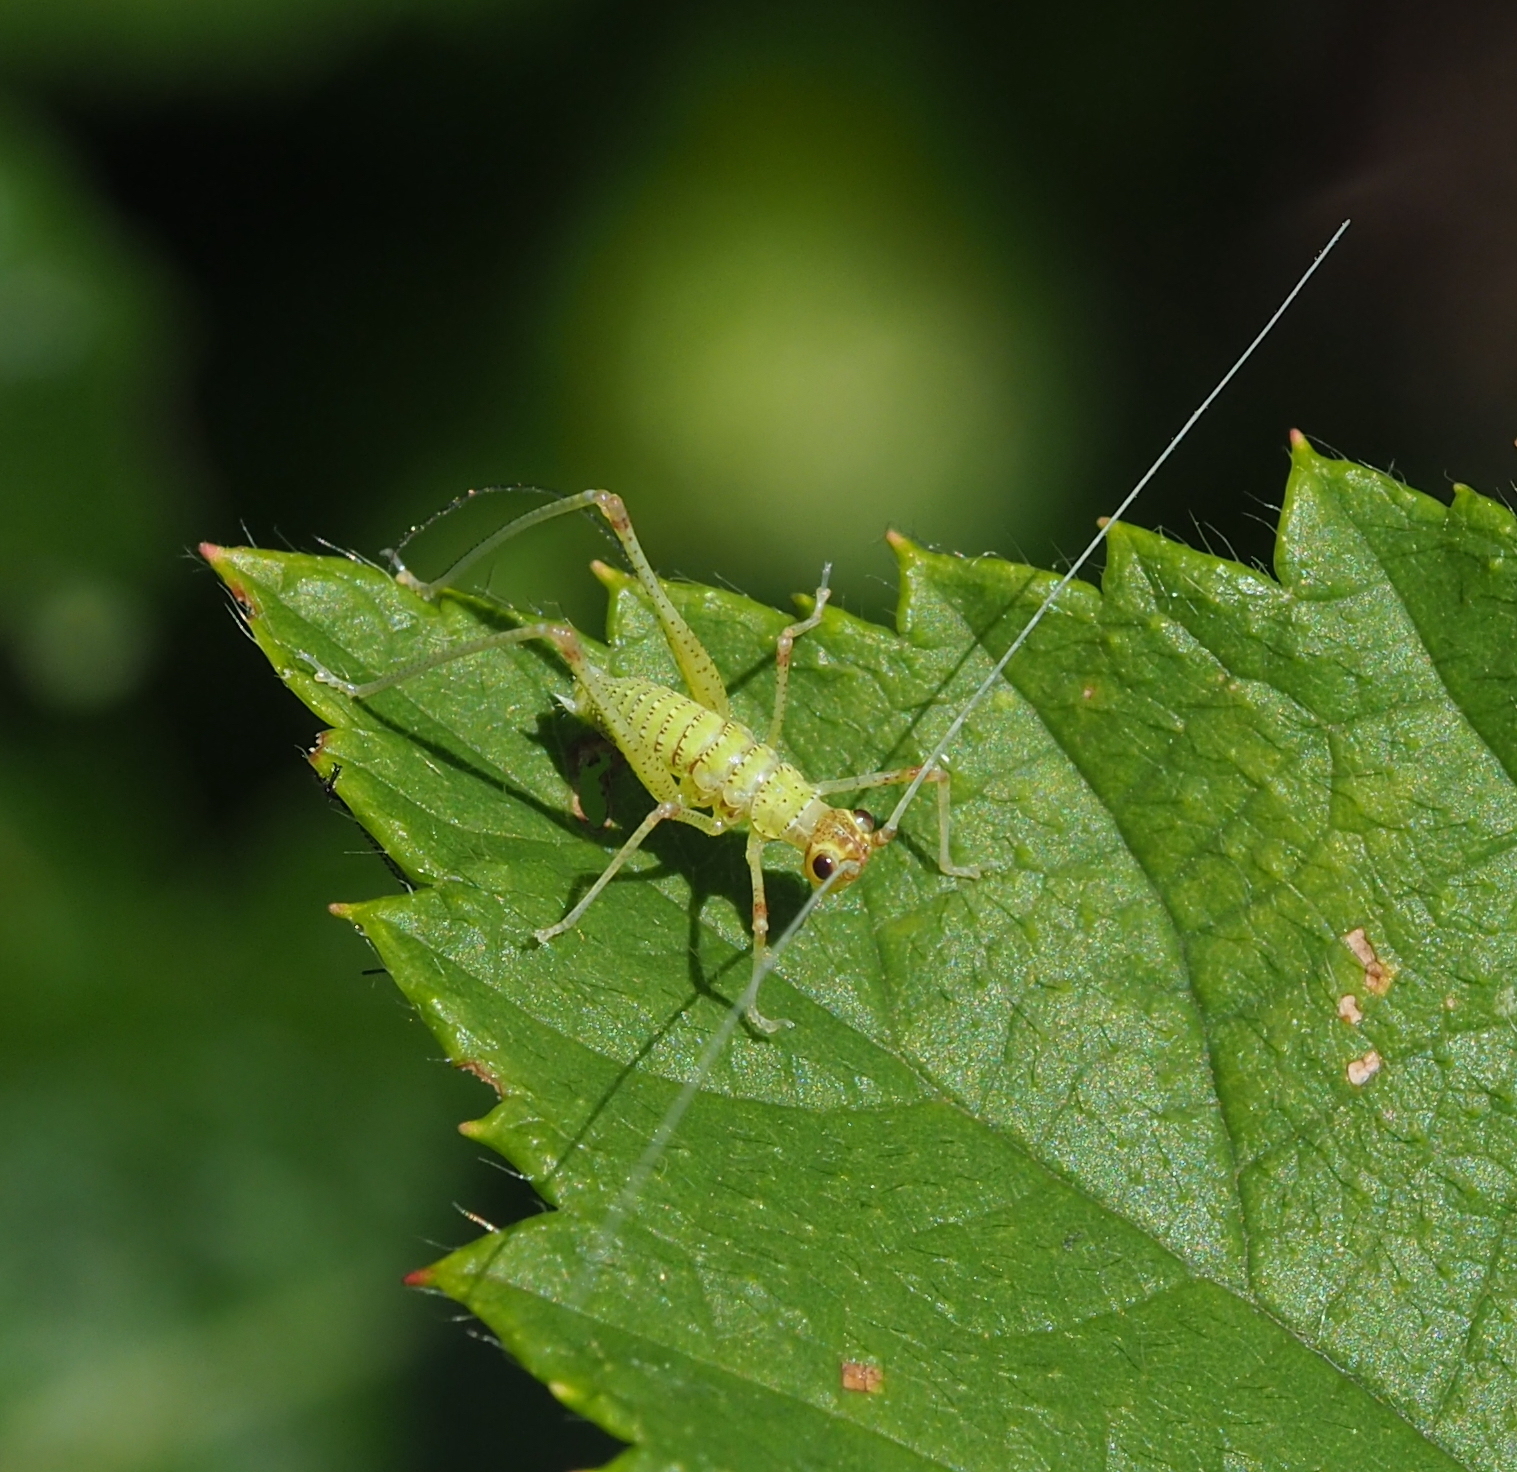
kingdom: Animalia
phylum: Arthropoda
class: Insecta
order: Orthoptera
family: Tettigoniidae
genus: Phaneroptera
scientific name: Phaneroptera nana
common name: Southern sickle bush-cricket
